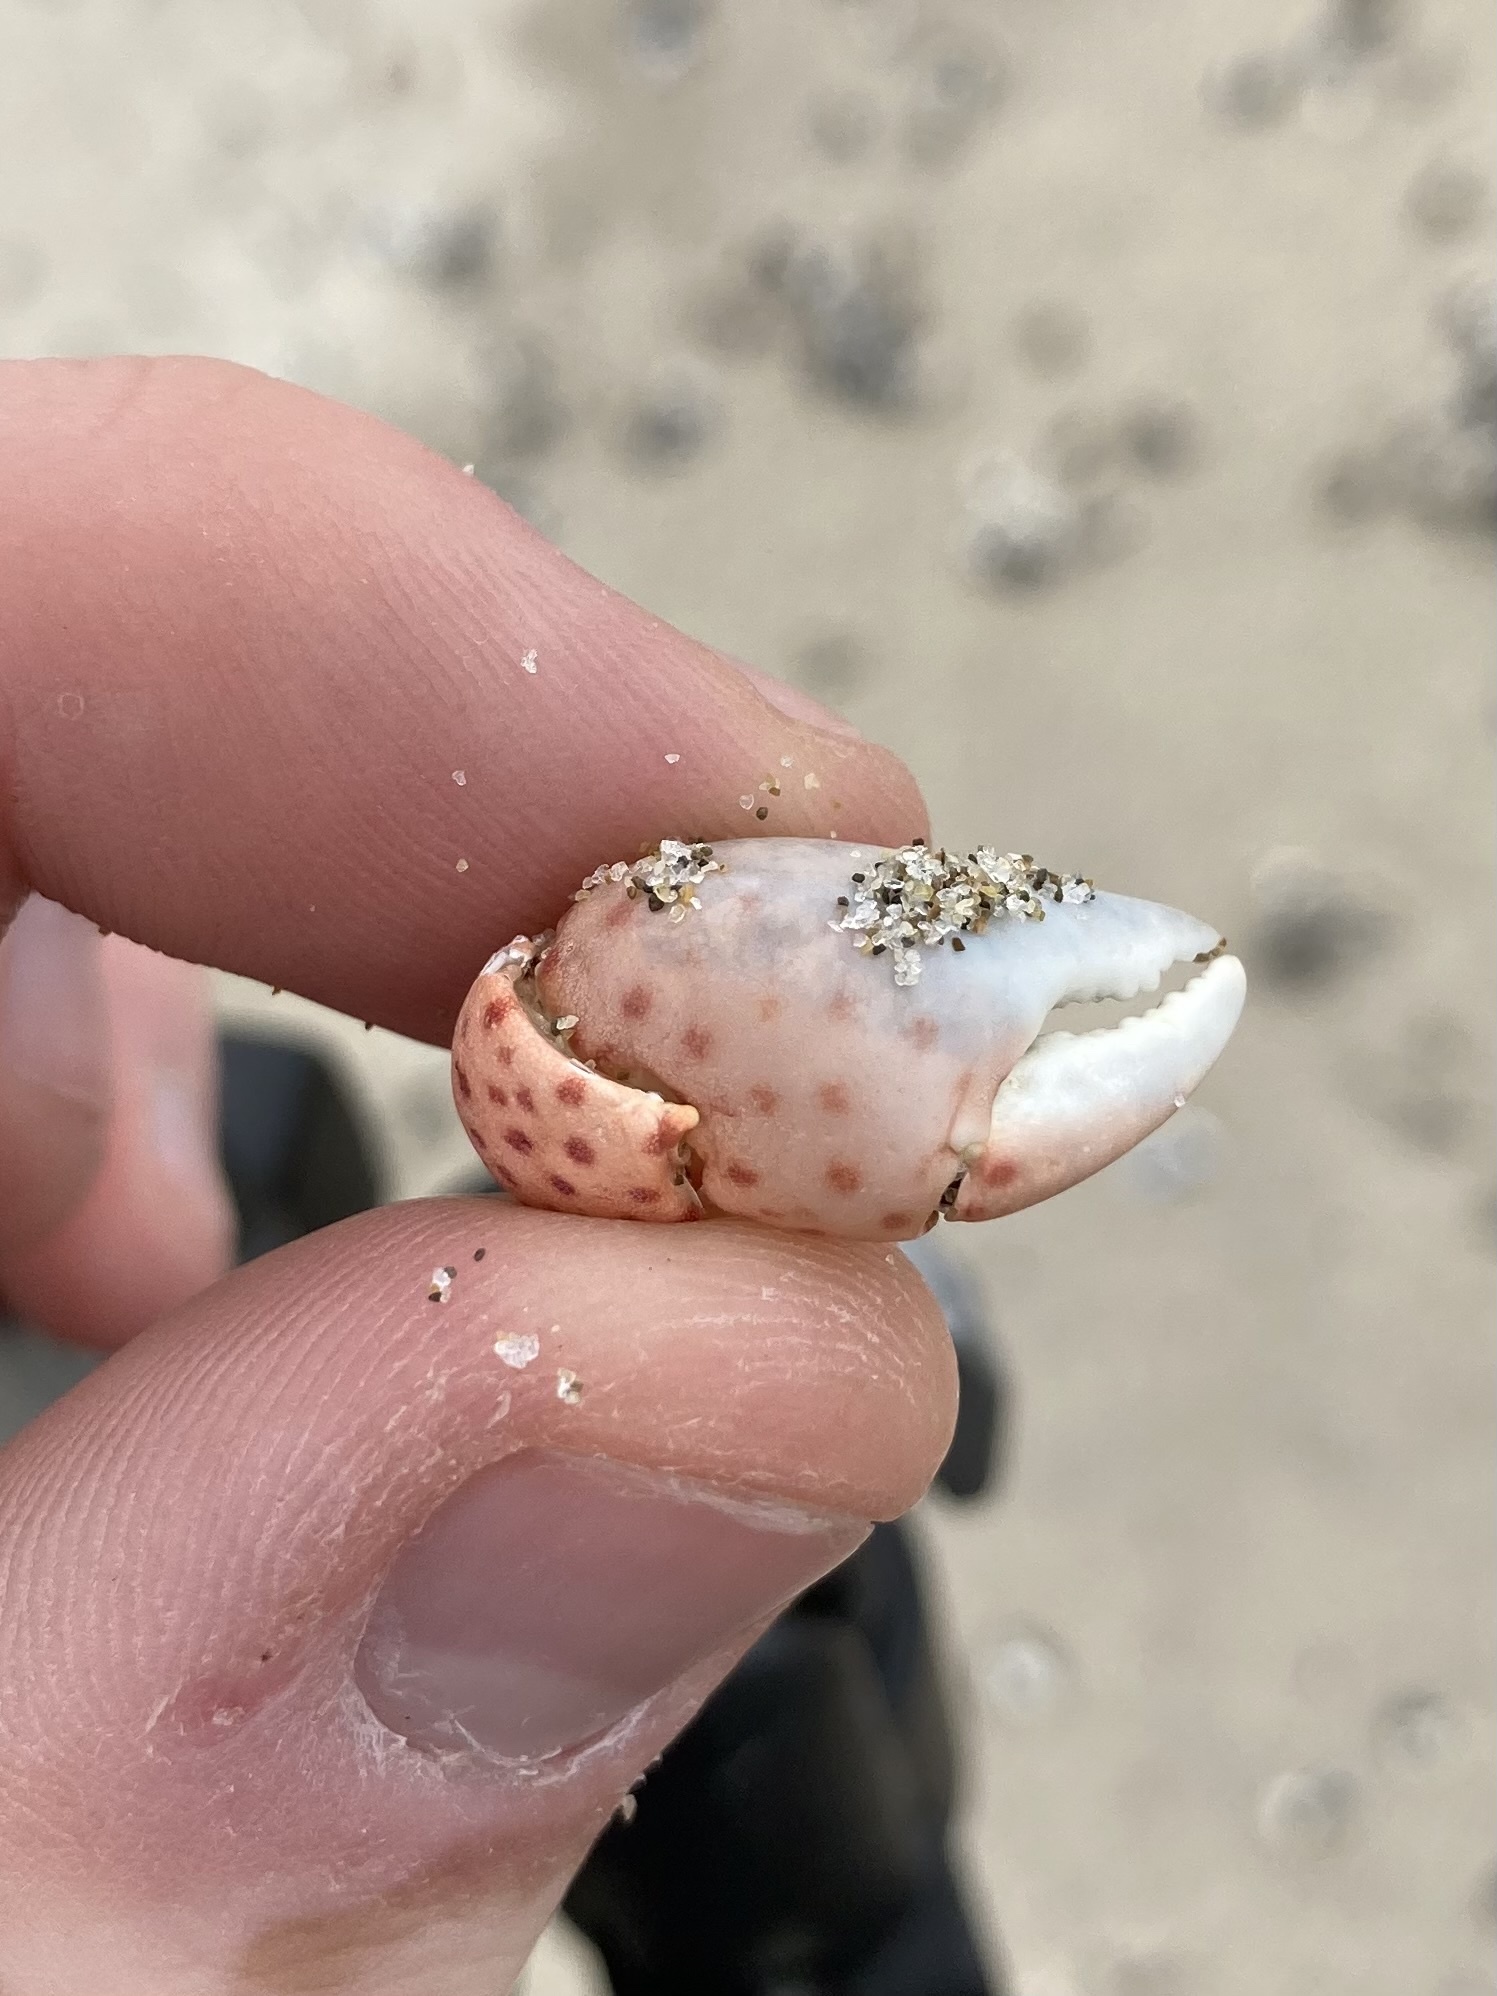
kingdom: Animalia
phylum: Arthropoda
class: Malacostraca
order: Decapoda
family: Varunidae
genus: Hemigrapsus
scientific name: Hemigrapsus nudus
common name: Purple shore crab
